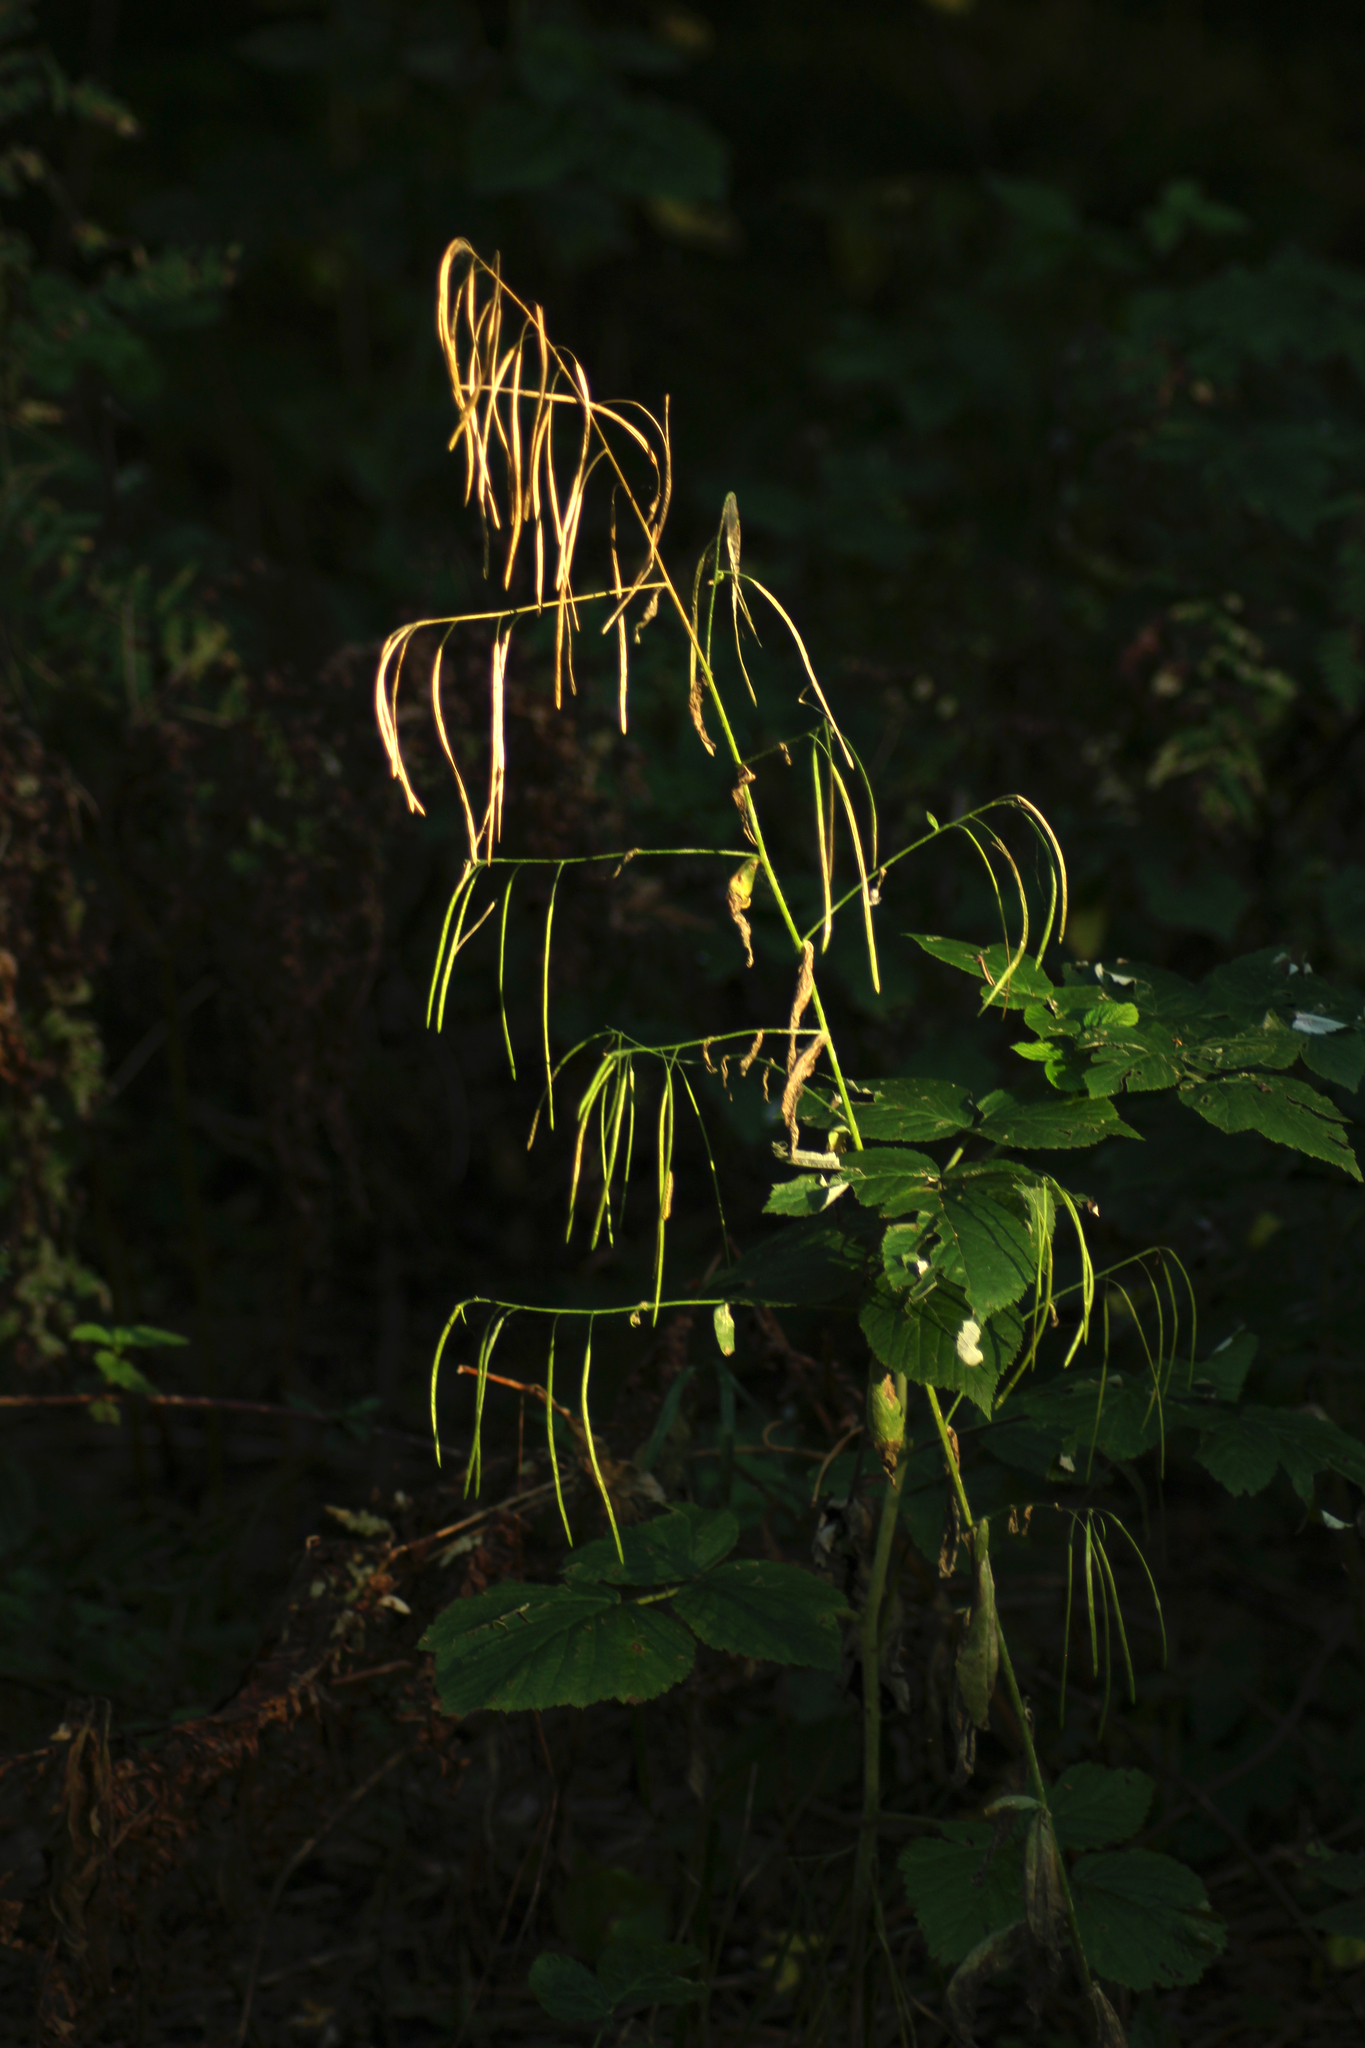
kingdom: Plantae
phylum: Tracheophyta
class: Magnoliopsida
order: Brassicales
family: Brassicaceae
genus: Catolobus
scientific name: Catolobus pendulus
